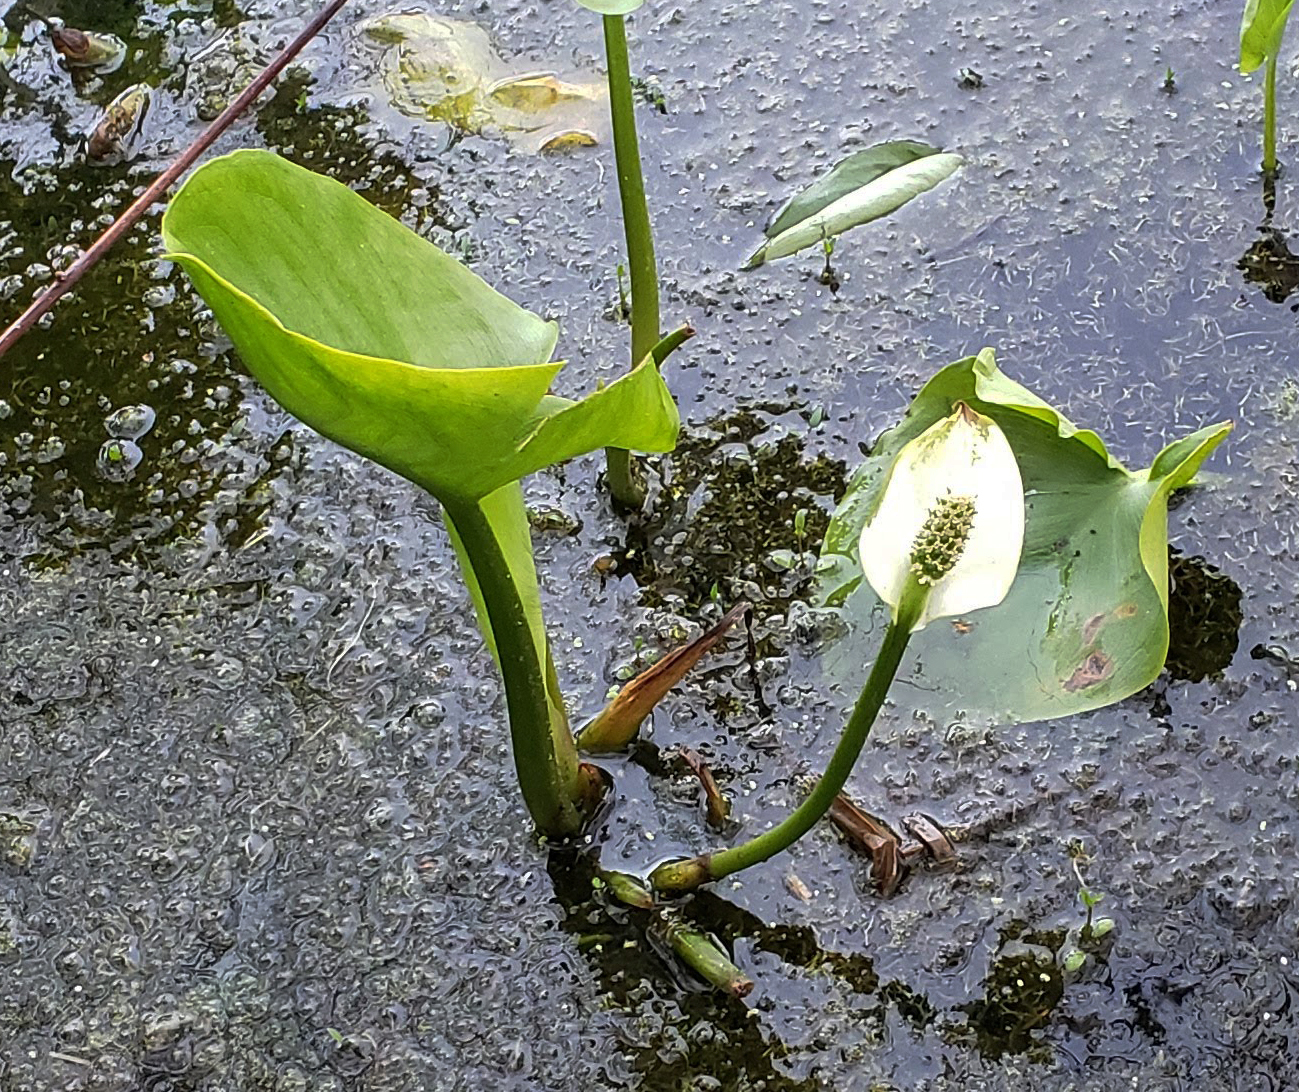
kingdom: Plantae
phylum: Tracheophyta
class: Liliopsida
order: Alismatales
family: Araceae
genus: Calla
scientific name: Calla palustris
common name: Bog arum
